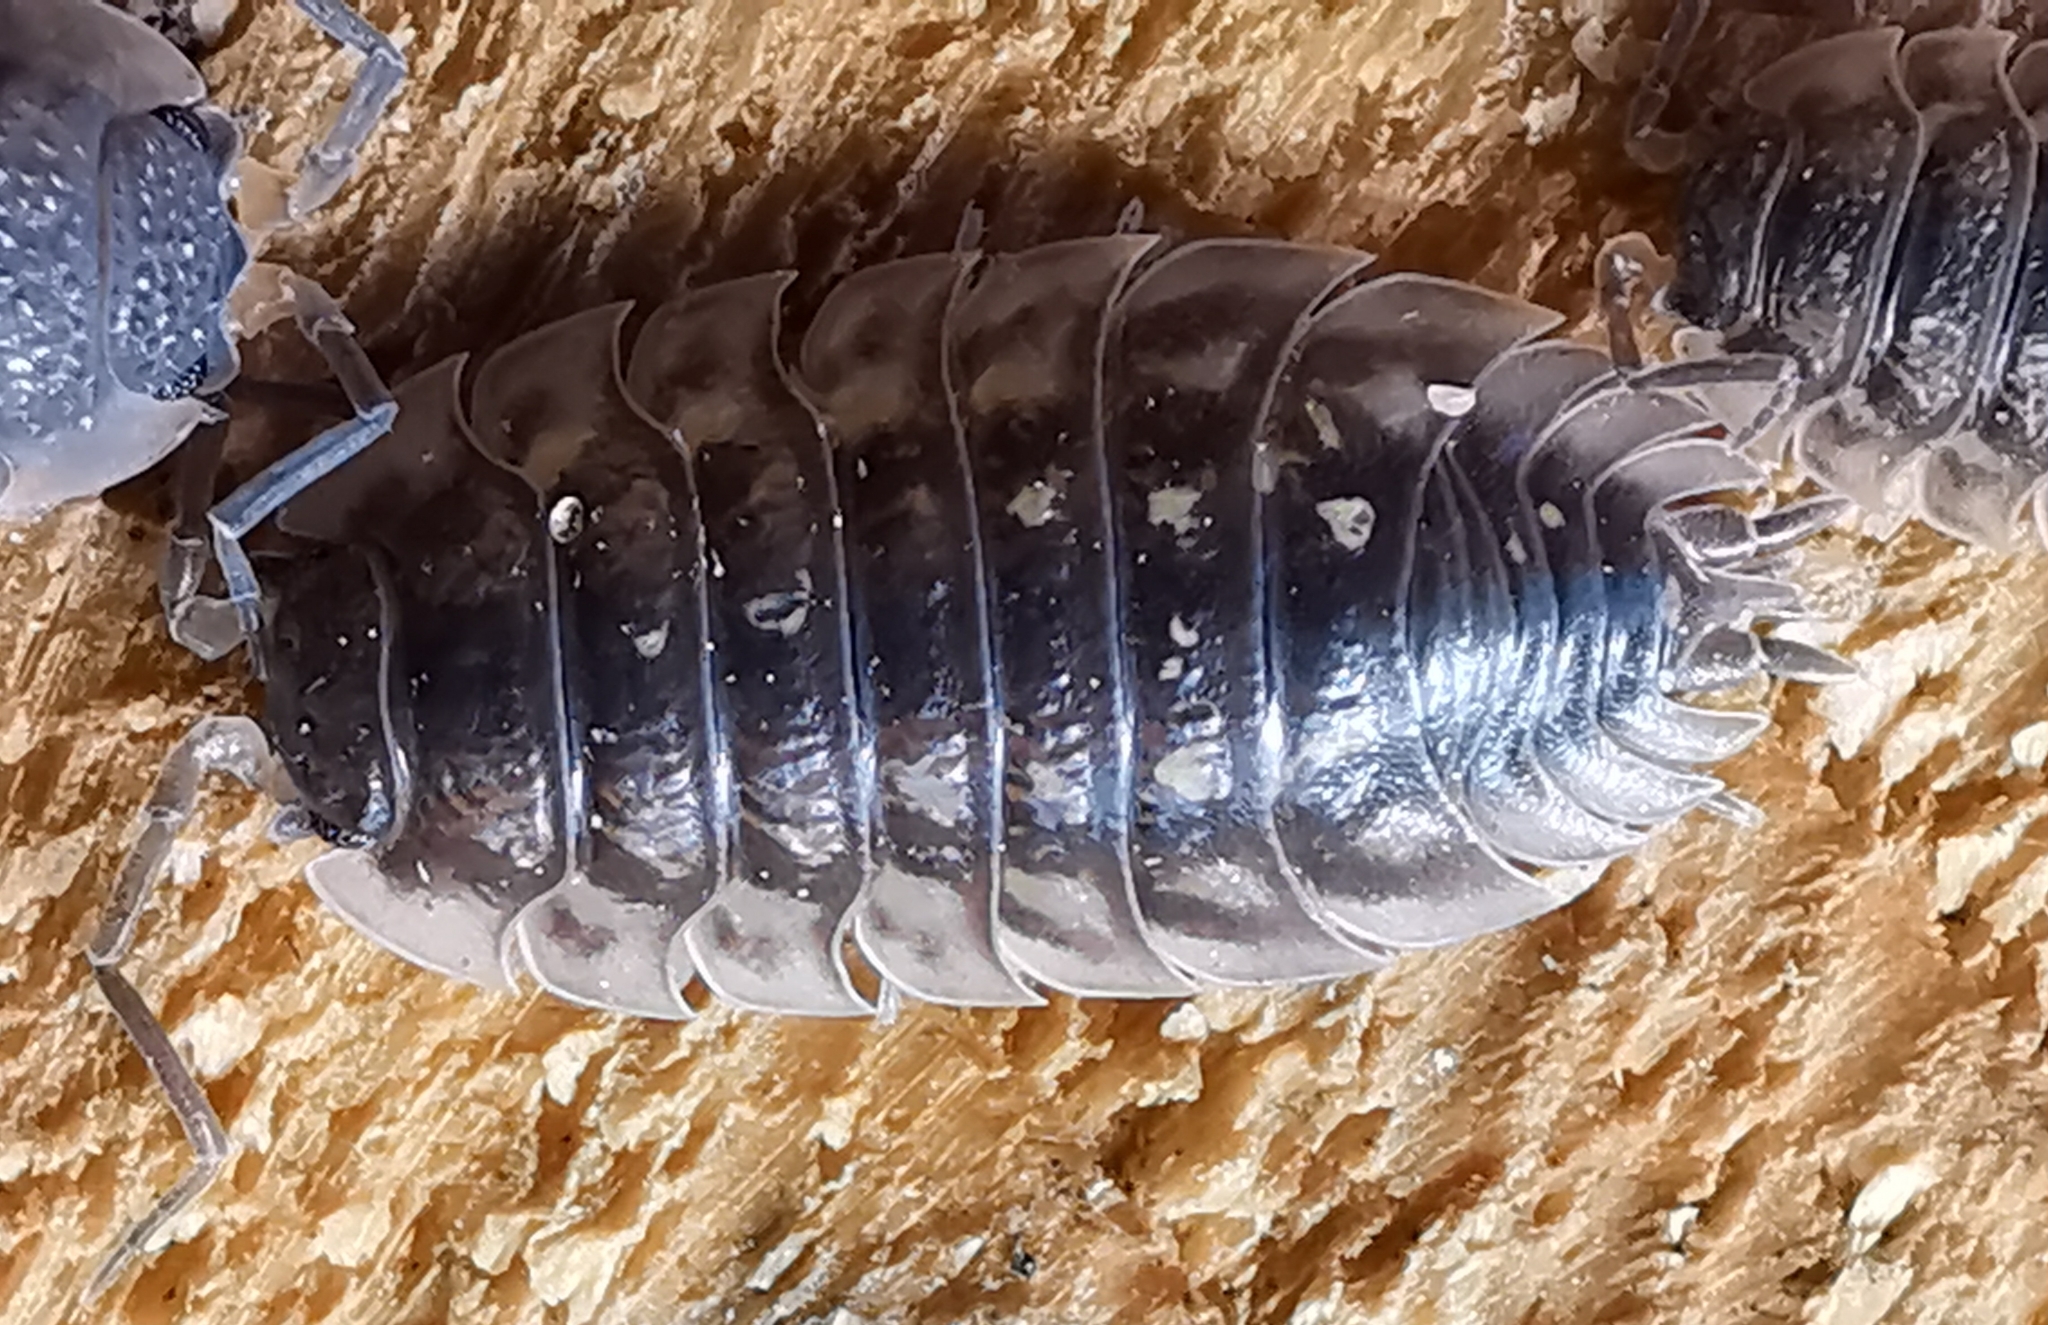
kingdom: Animalia
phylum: Arthropoda
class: Malacostraca
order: Isopoda
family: Oniscidae
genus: Oniscus
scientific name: Oniscus asellus
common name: Common shiny woodlouse
